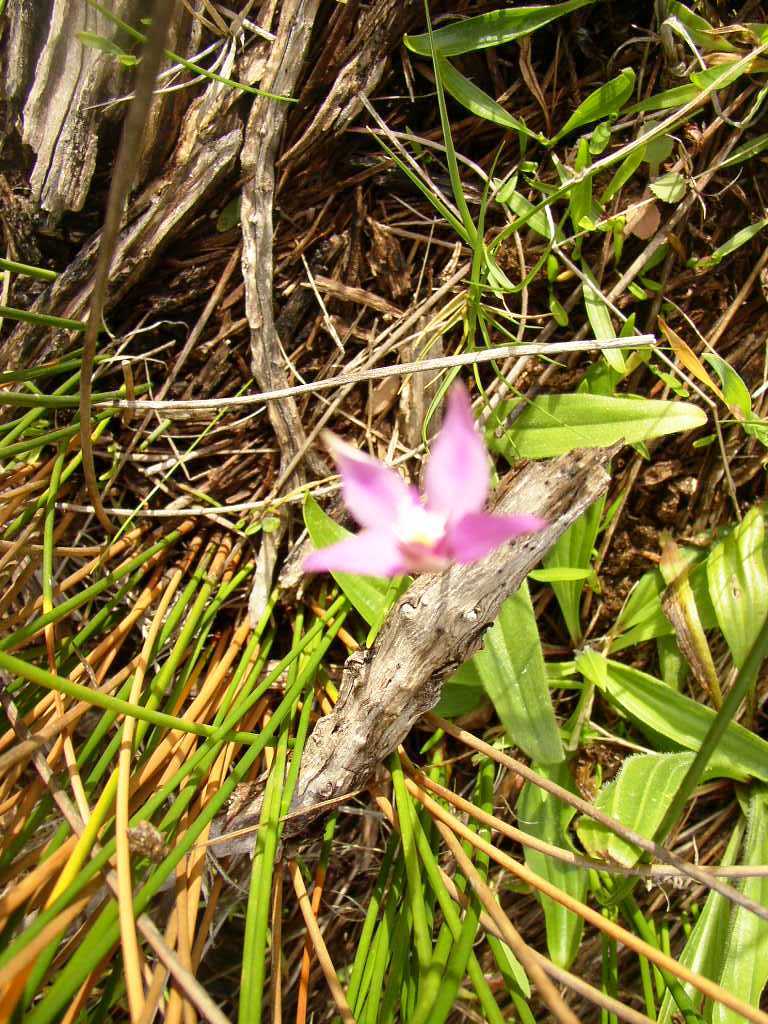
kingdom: Plantae
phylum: Tracheophyta
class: Liliopsida
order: Asparagales
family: Orchidaceae
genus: Caladenia
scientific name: Caladenia reptans
